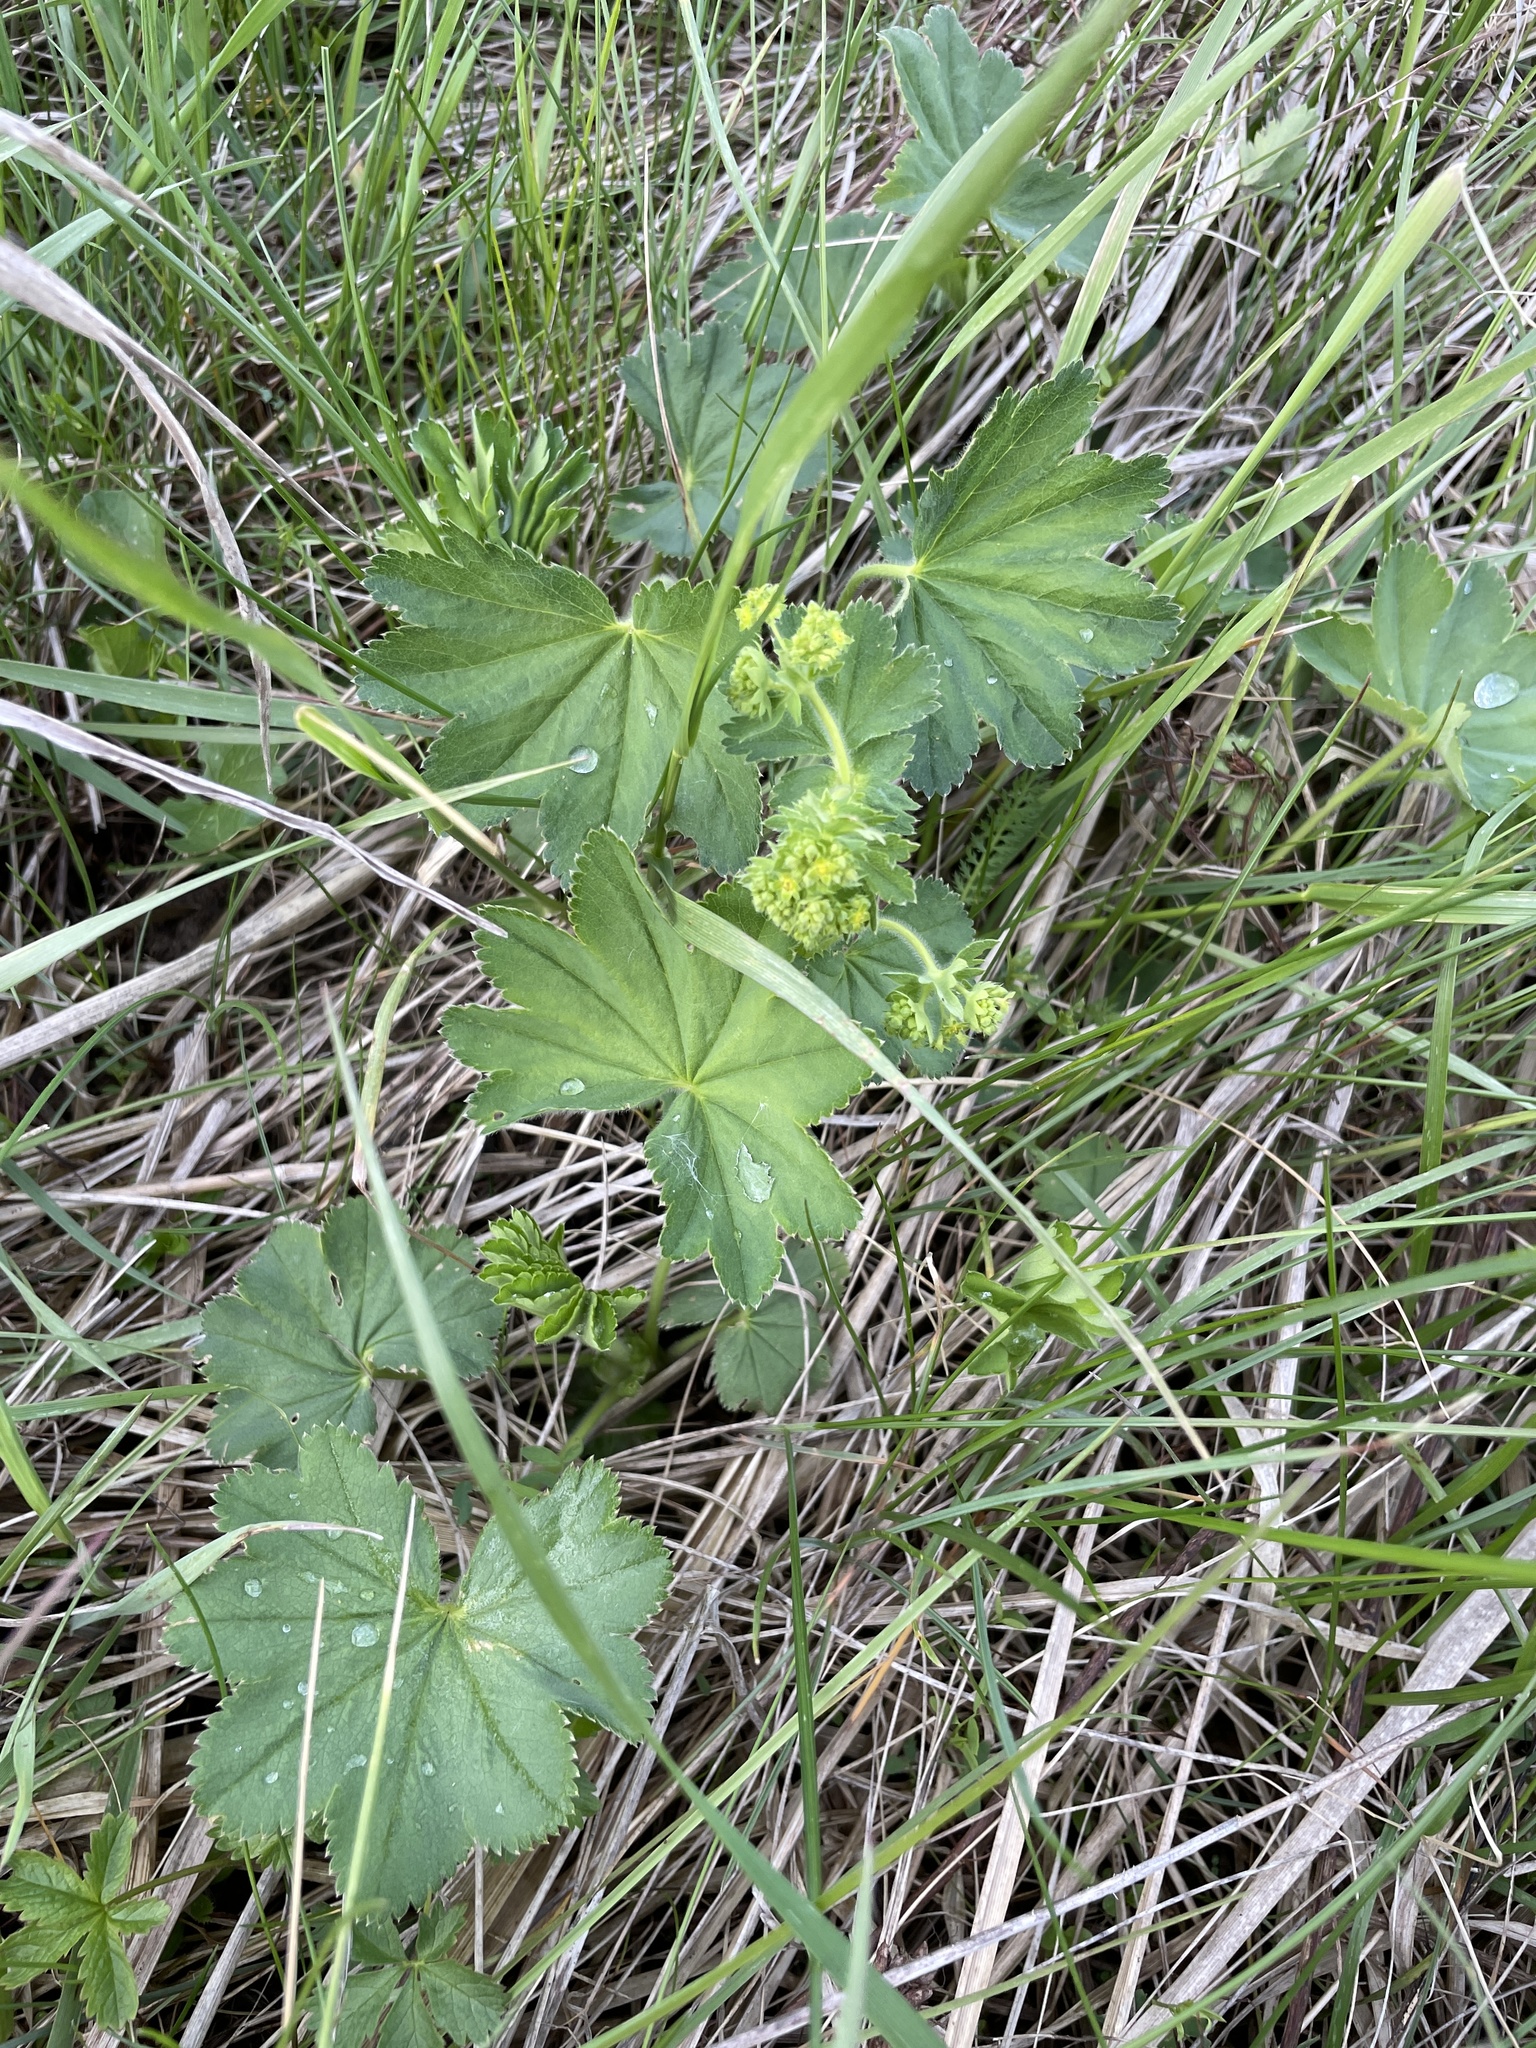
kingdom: Plantae
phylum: Tracheophyta
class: Magnoliopsida
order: Rosales
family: Rosaceae
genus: Alchemilla
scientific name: Alchemilla vulgaris
